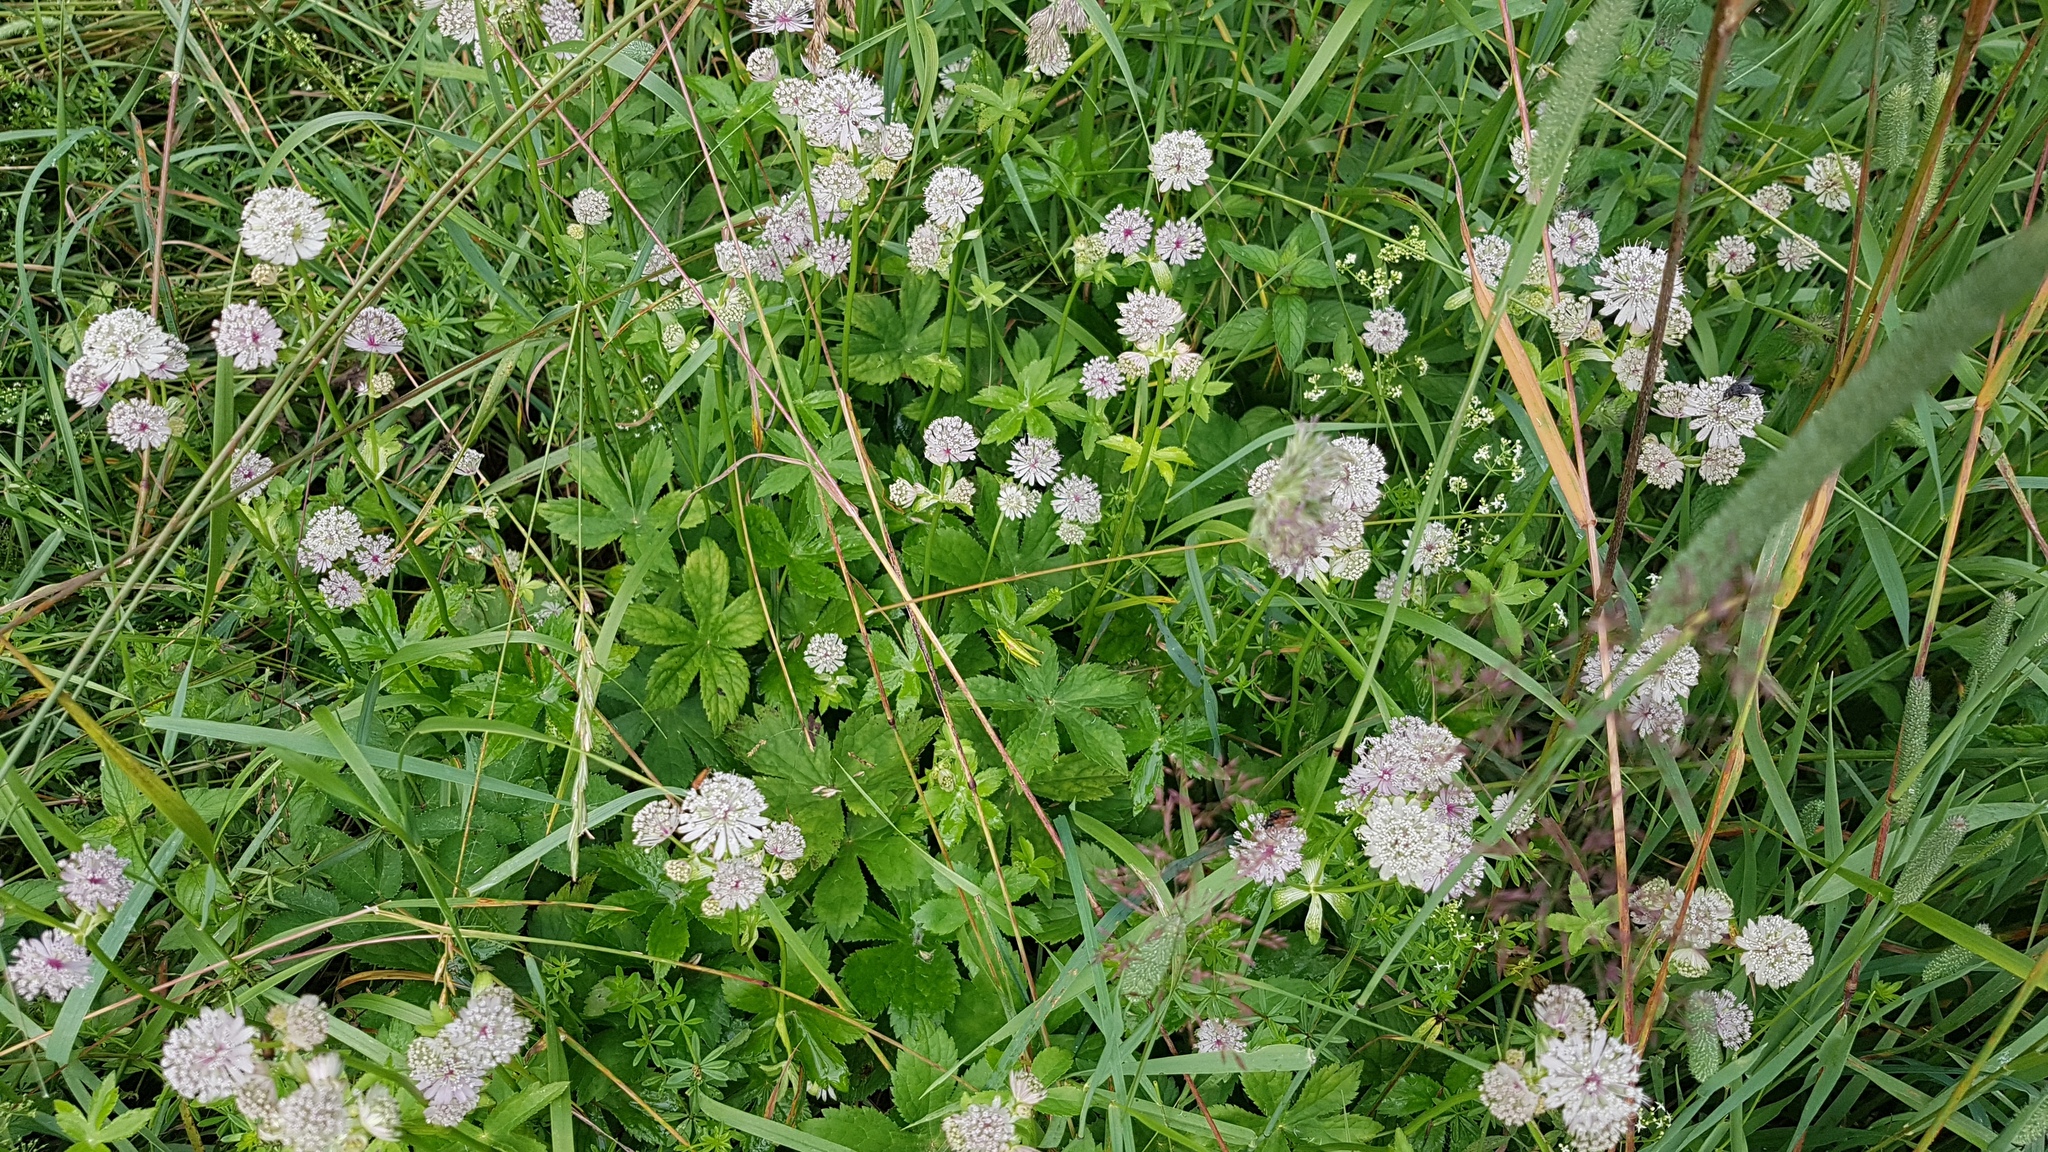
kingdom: Plantae
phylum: Tracheophyta
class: Magnoliopsida
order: Apiales
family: Apiaceae
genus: Astrantia
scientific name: Astrantia major
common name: Greater masterwort
